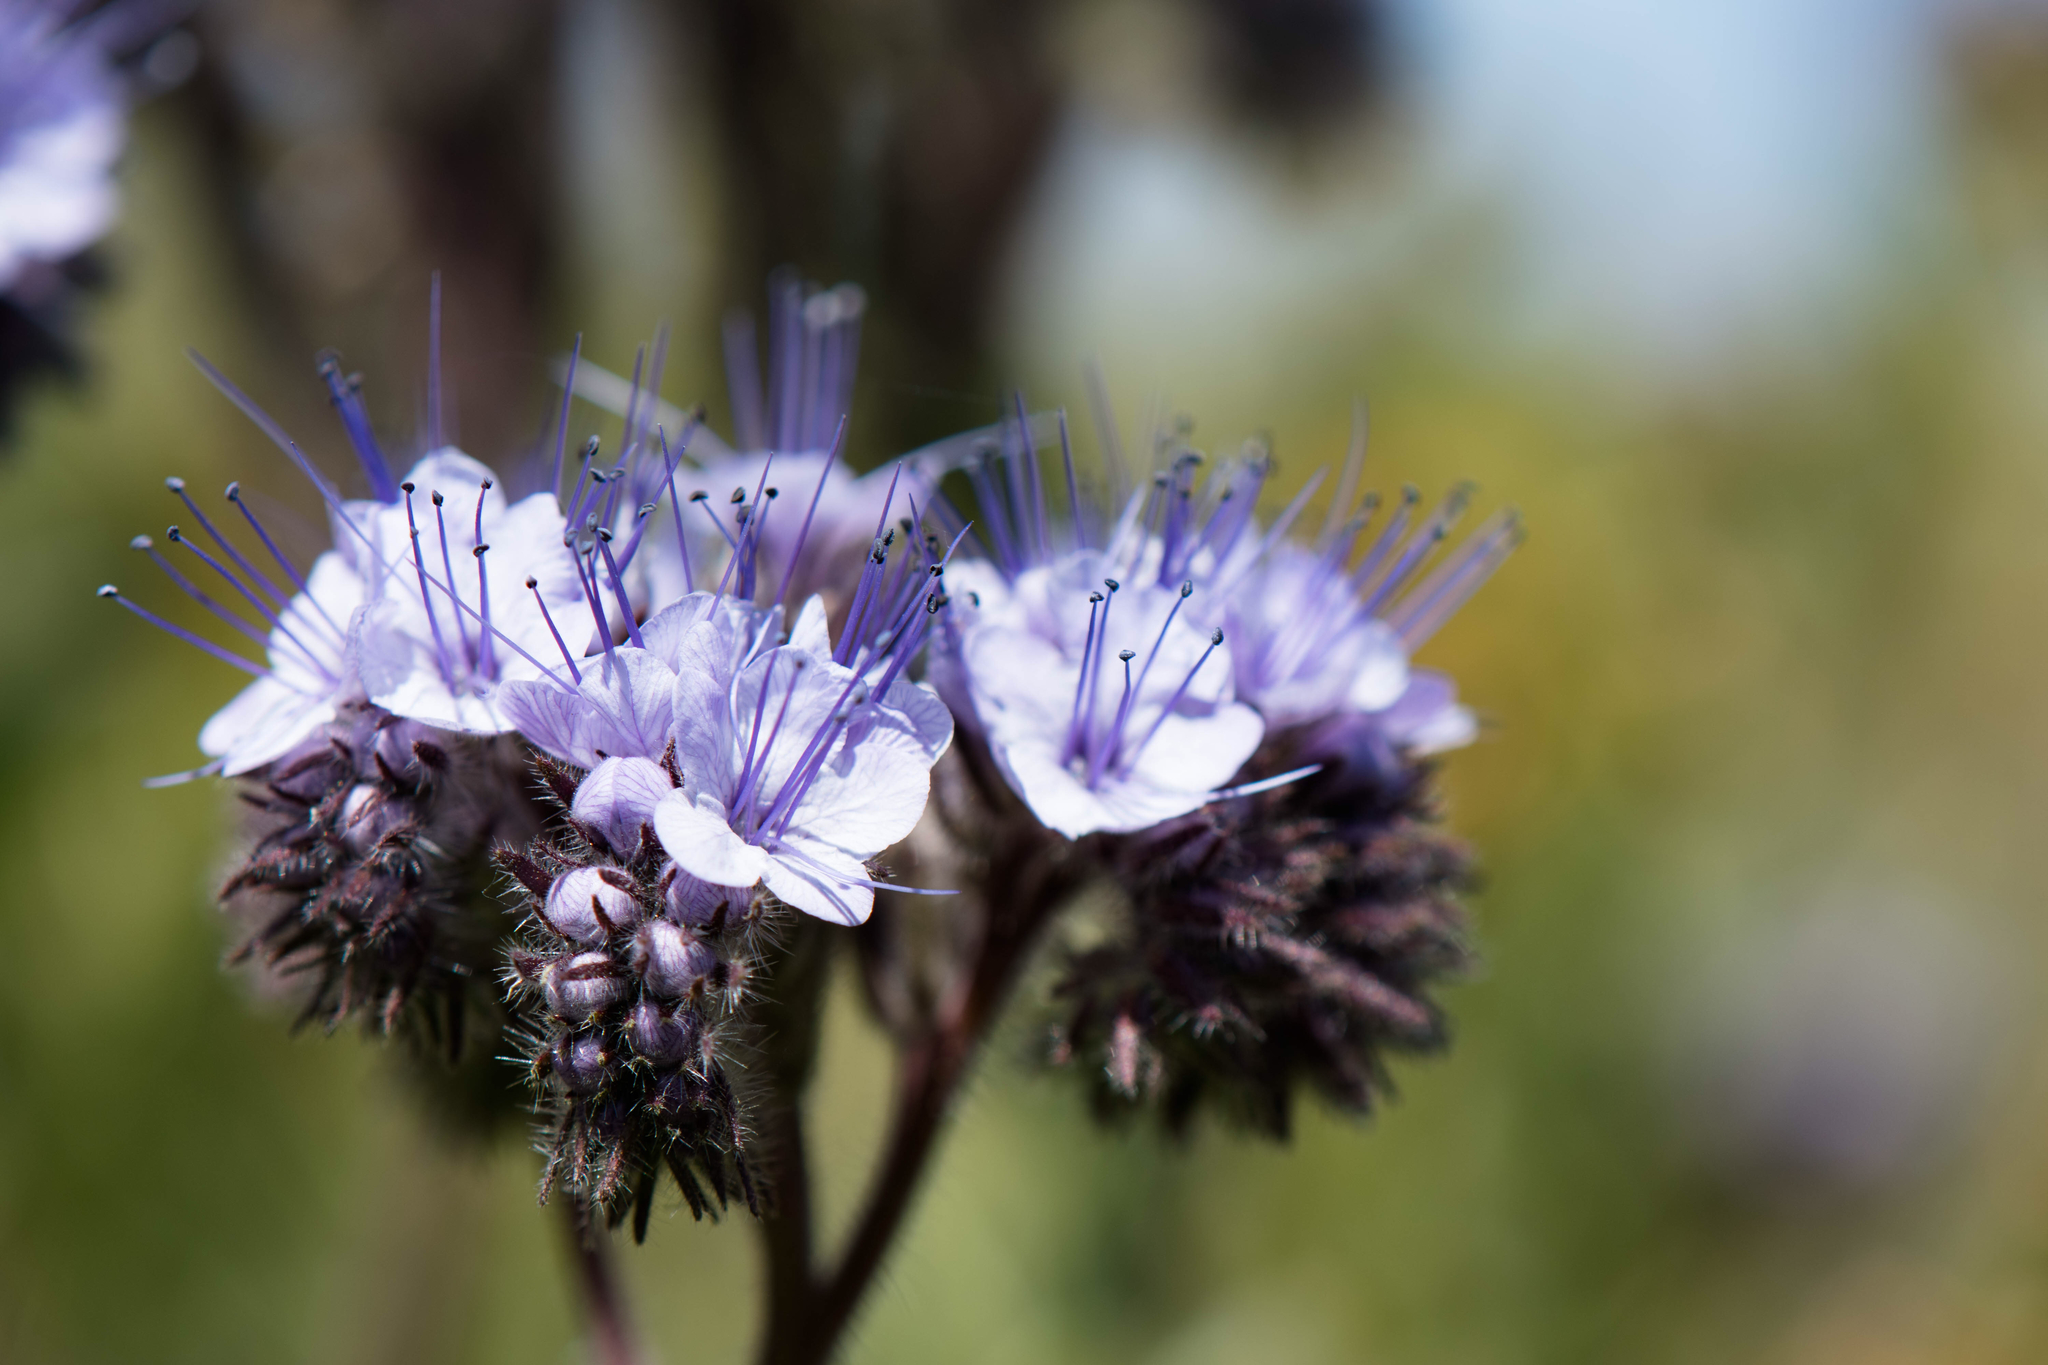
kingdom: Plantae
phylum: Tracheophyta
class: Magnoliopsida
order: Boraginales
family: Hydrophyllaceae
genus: Phacelia
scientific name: Phacelia tanacetifolia
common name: Phacelia
